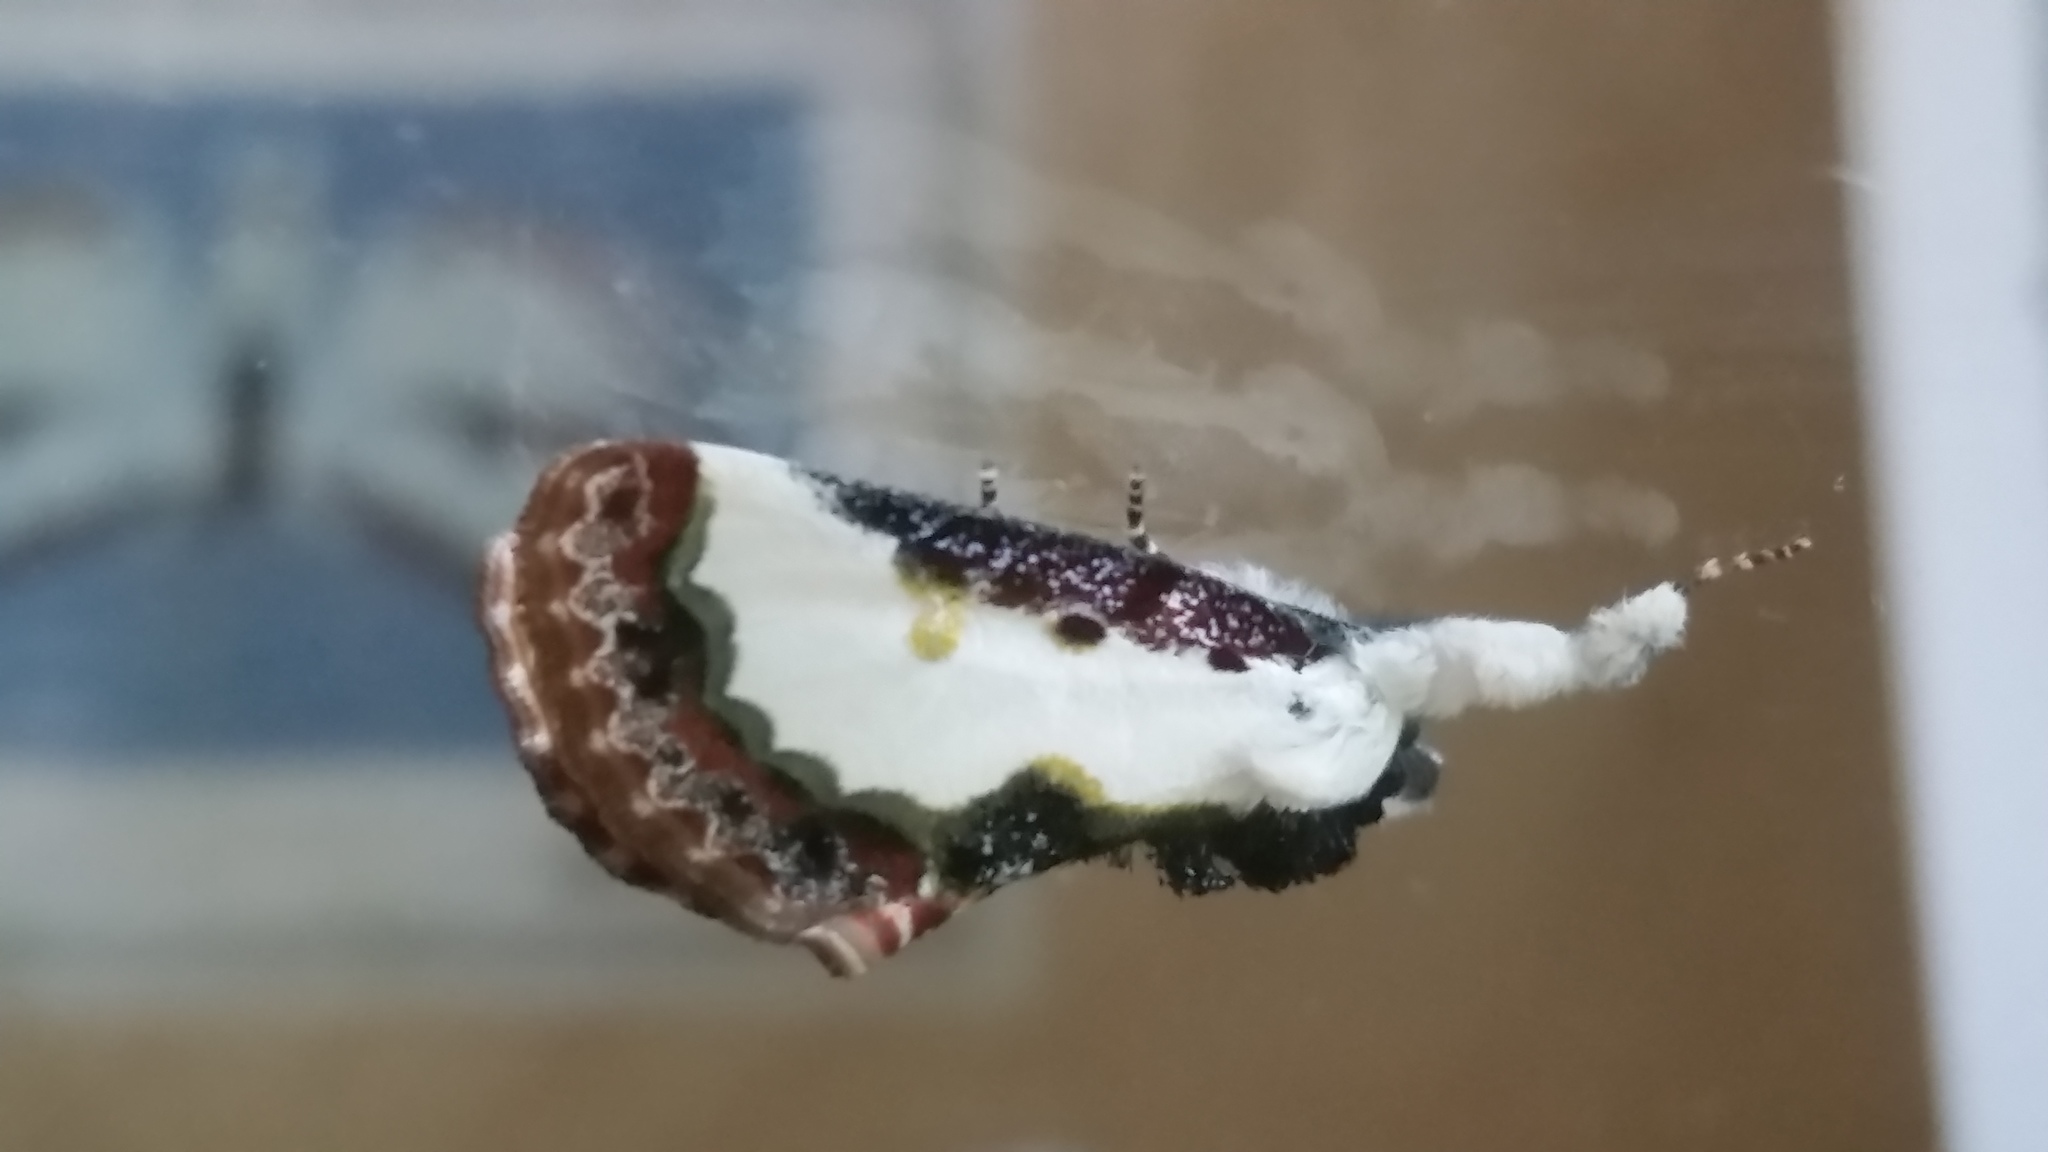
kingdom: Animalia
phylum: Arthropoda
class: Insecta
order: Lepidoptera
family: Noctuidae
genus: Eudryas
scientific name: Eudryas unio
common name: Pearly wood-nymph
